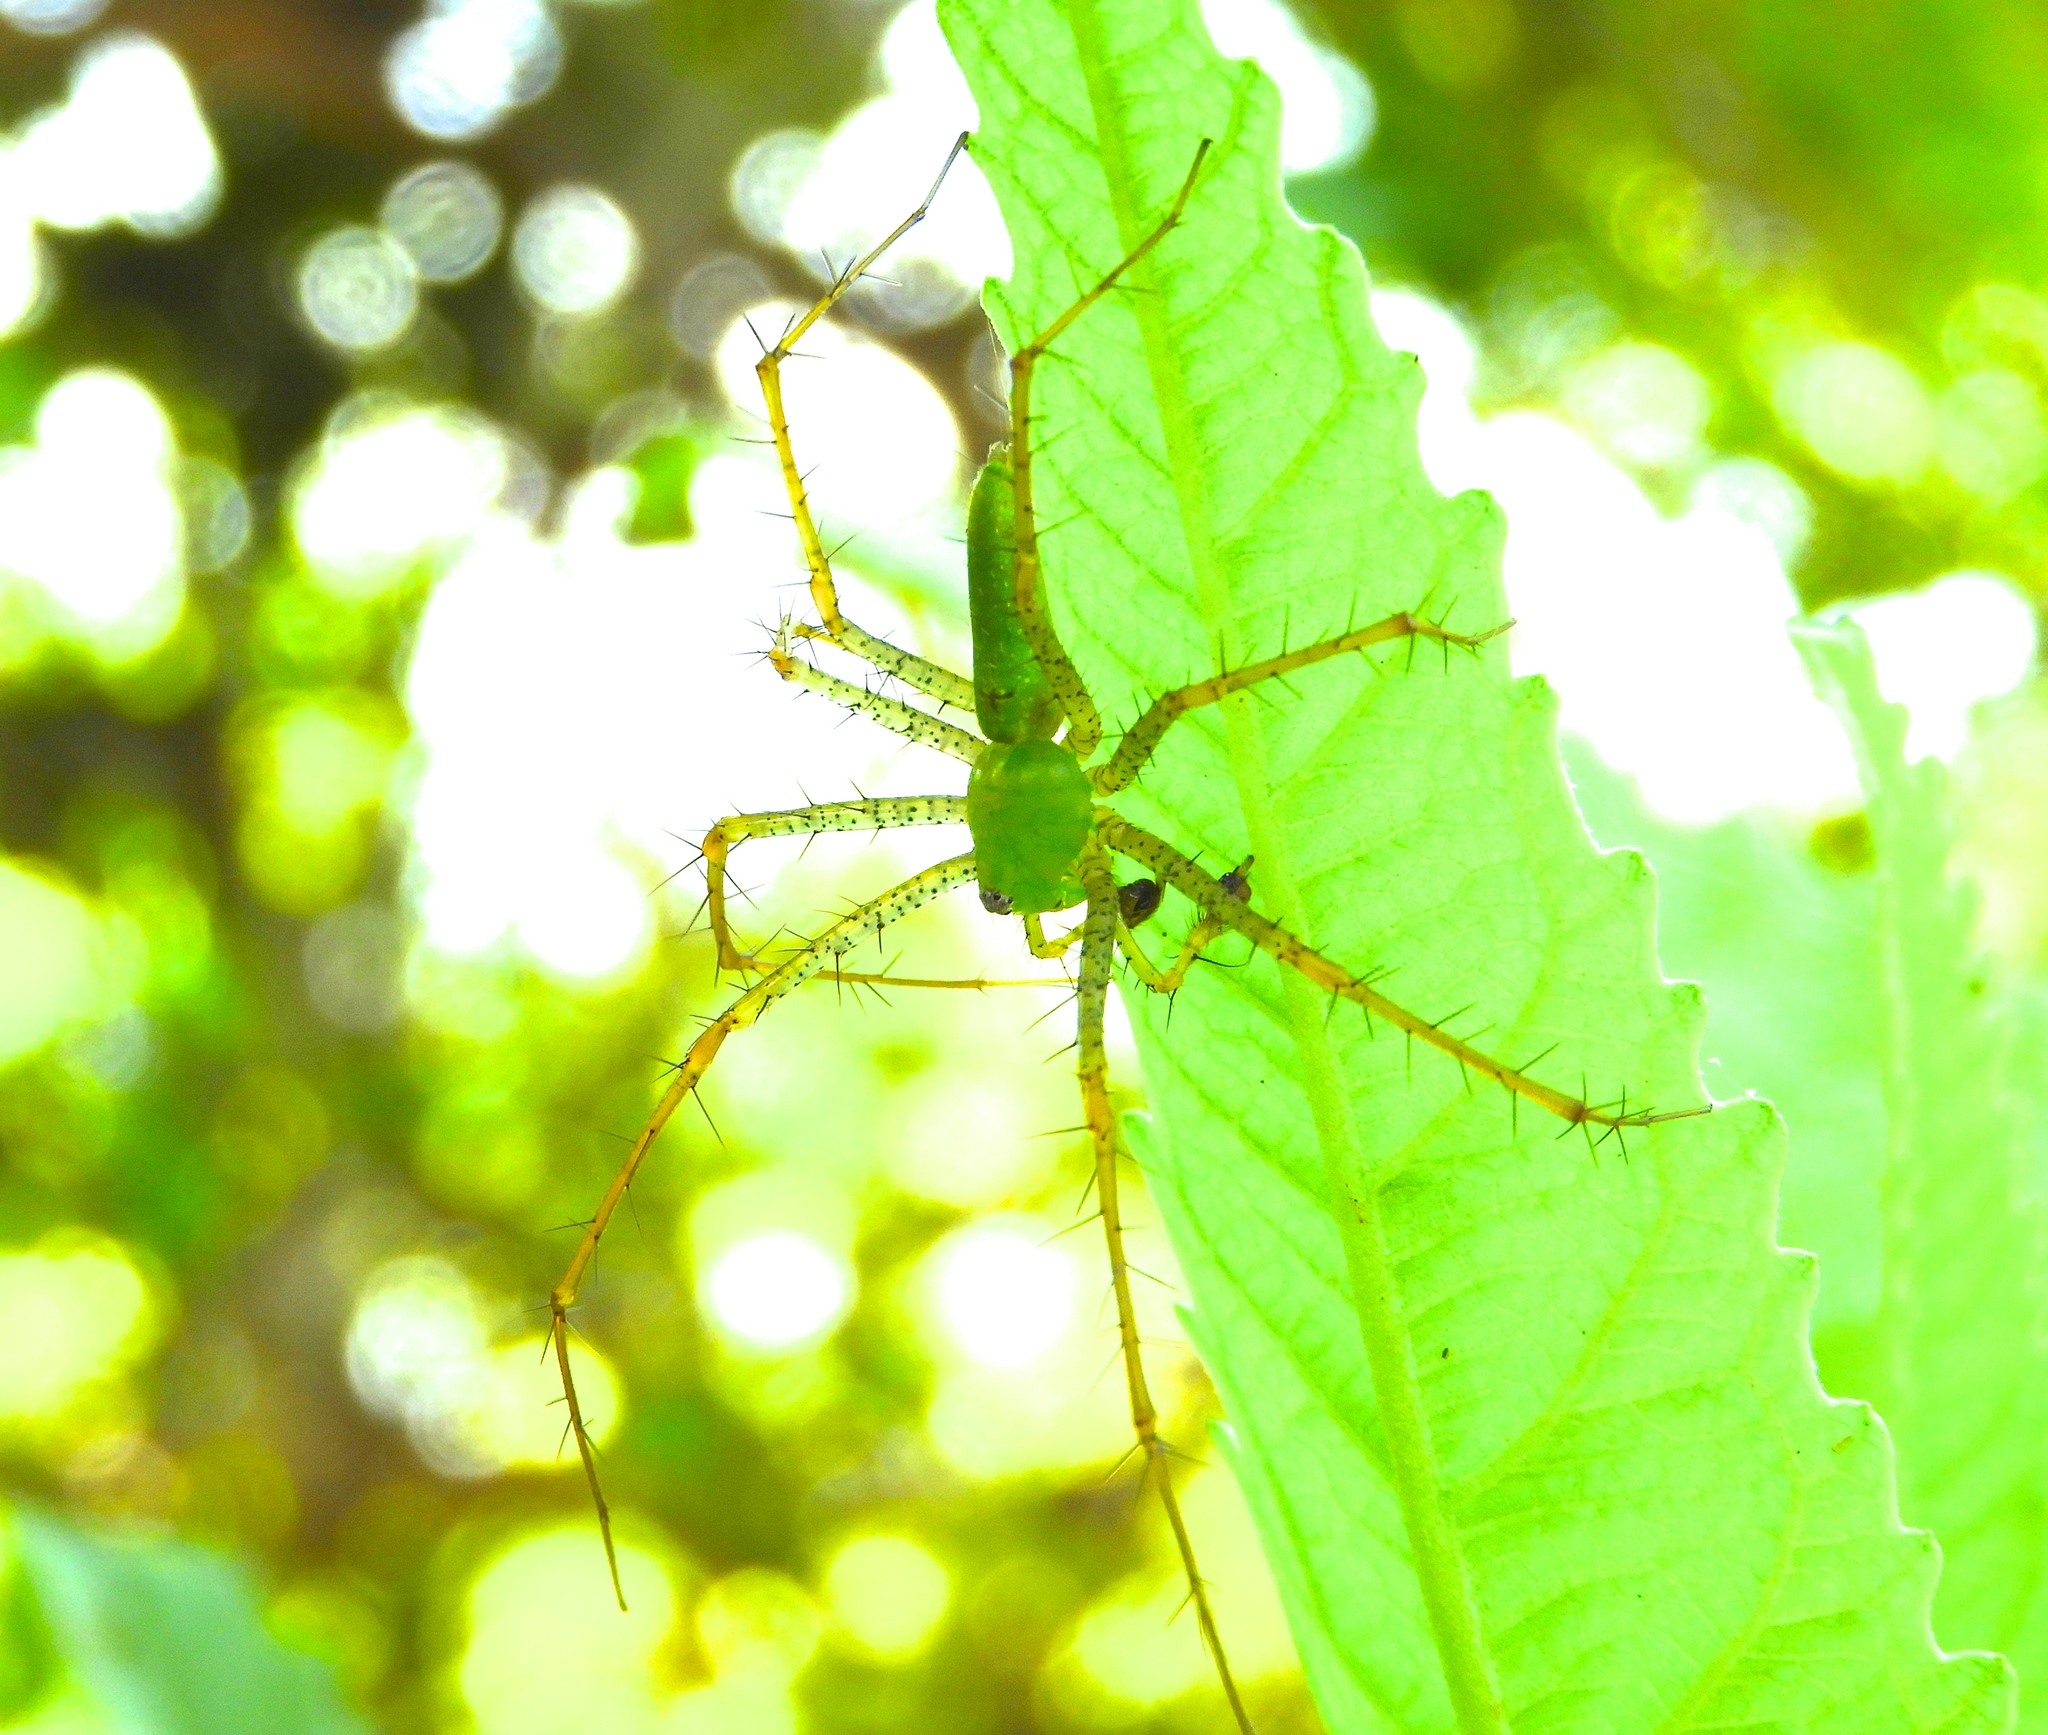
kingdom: Animalia
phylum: Arthropoda
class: Arachnida
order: Araneae
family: Oxyopidae
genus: Peucetia
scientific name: Peucetia
